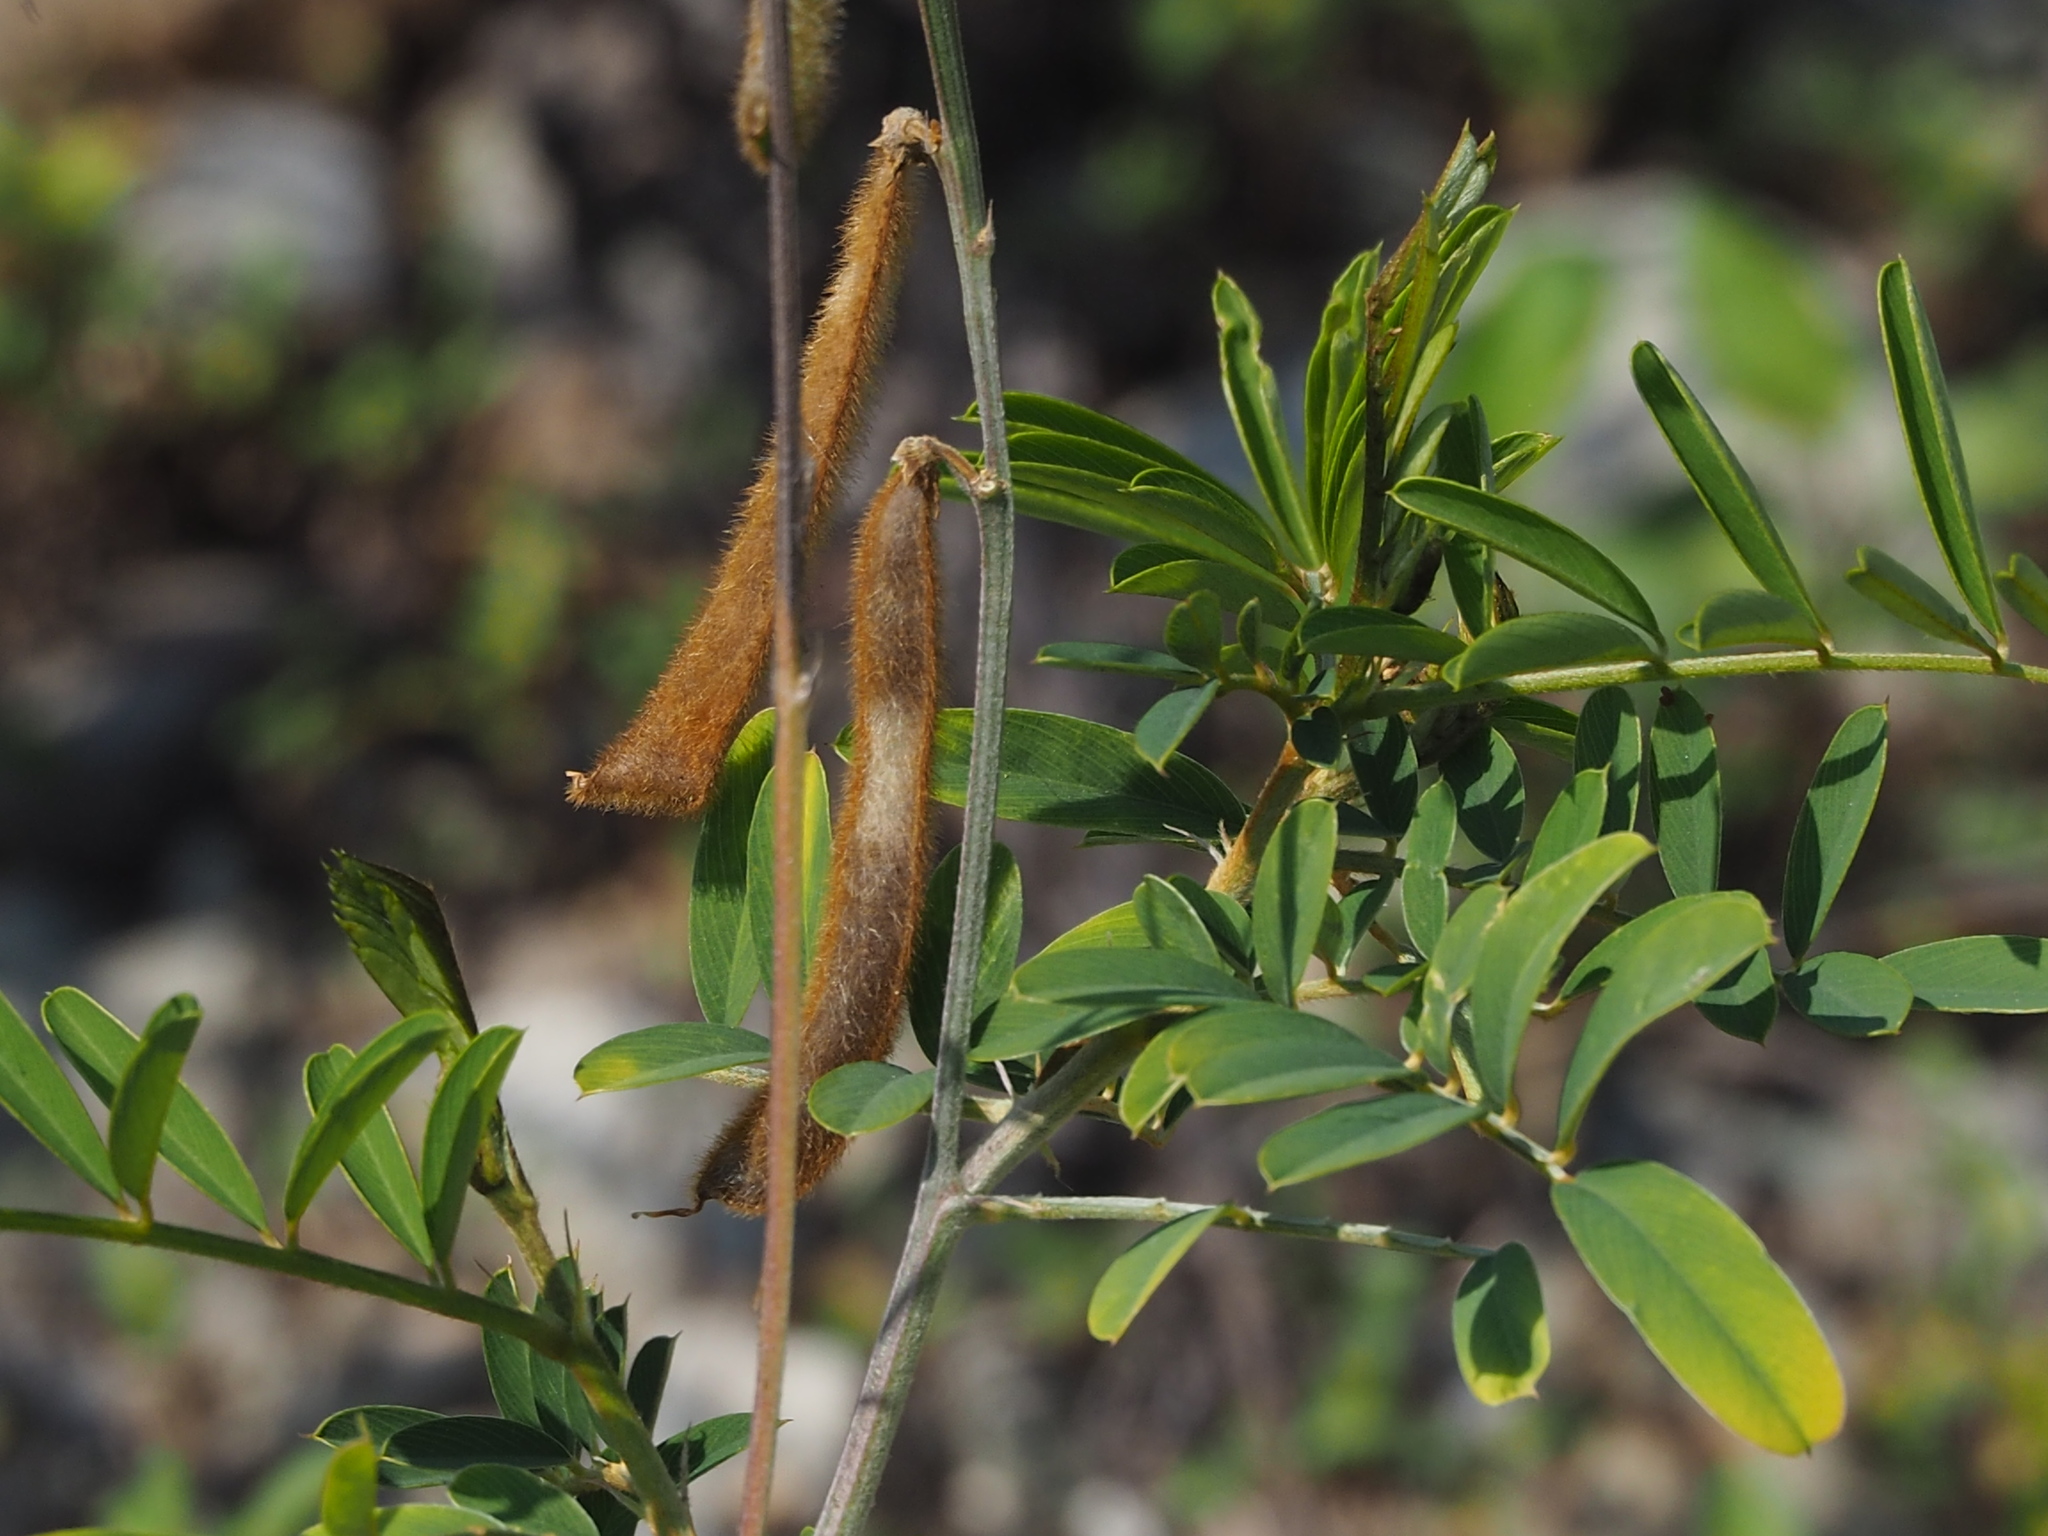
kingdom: Plantae
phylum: Tracheophyta
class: Magnoliopsida
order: Fabales
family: Fabaceae
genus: Tephrosia
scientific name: Tephrosia noctiflora
